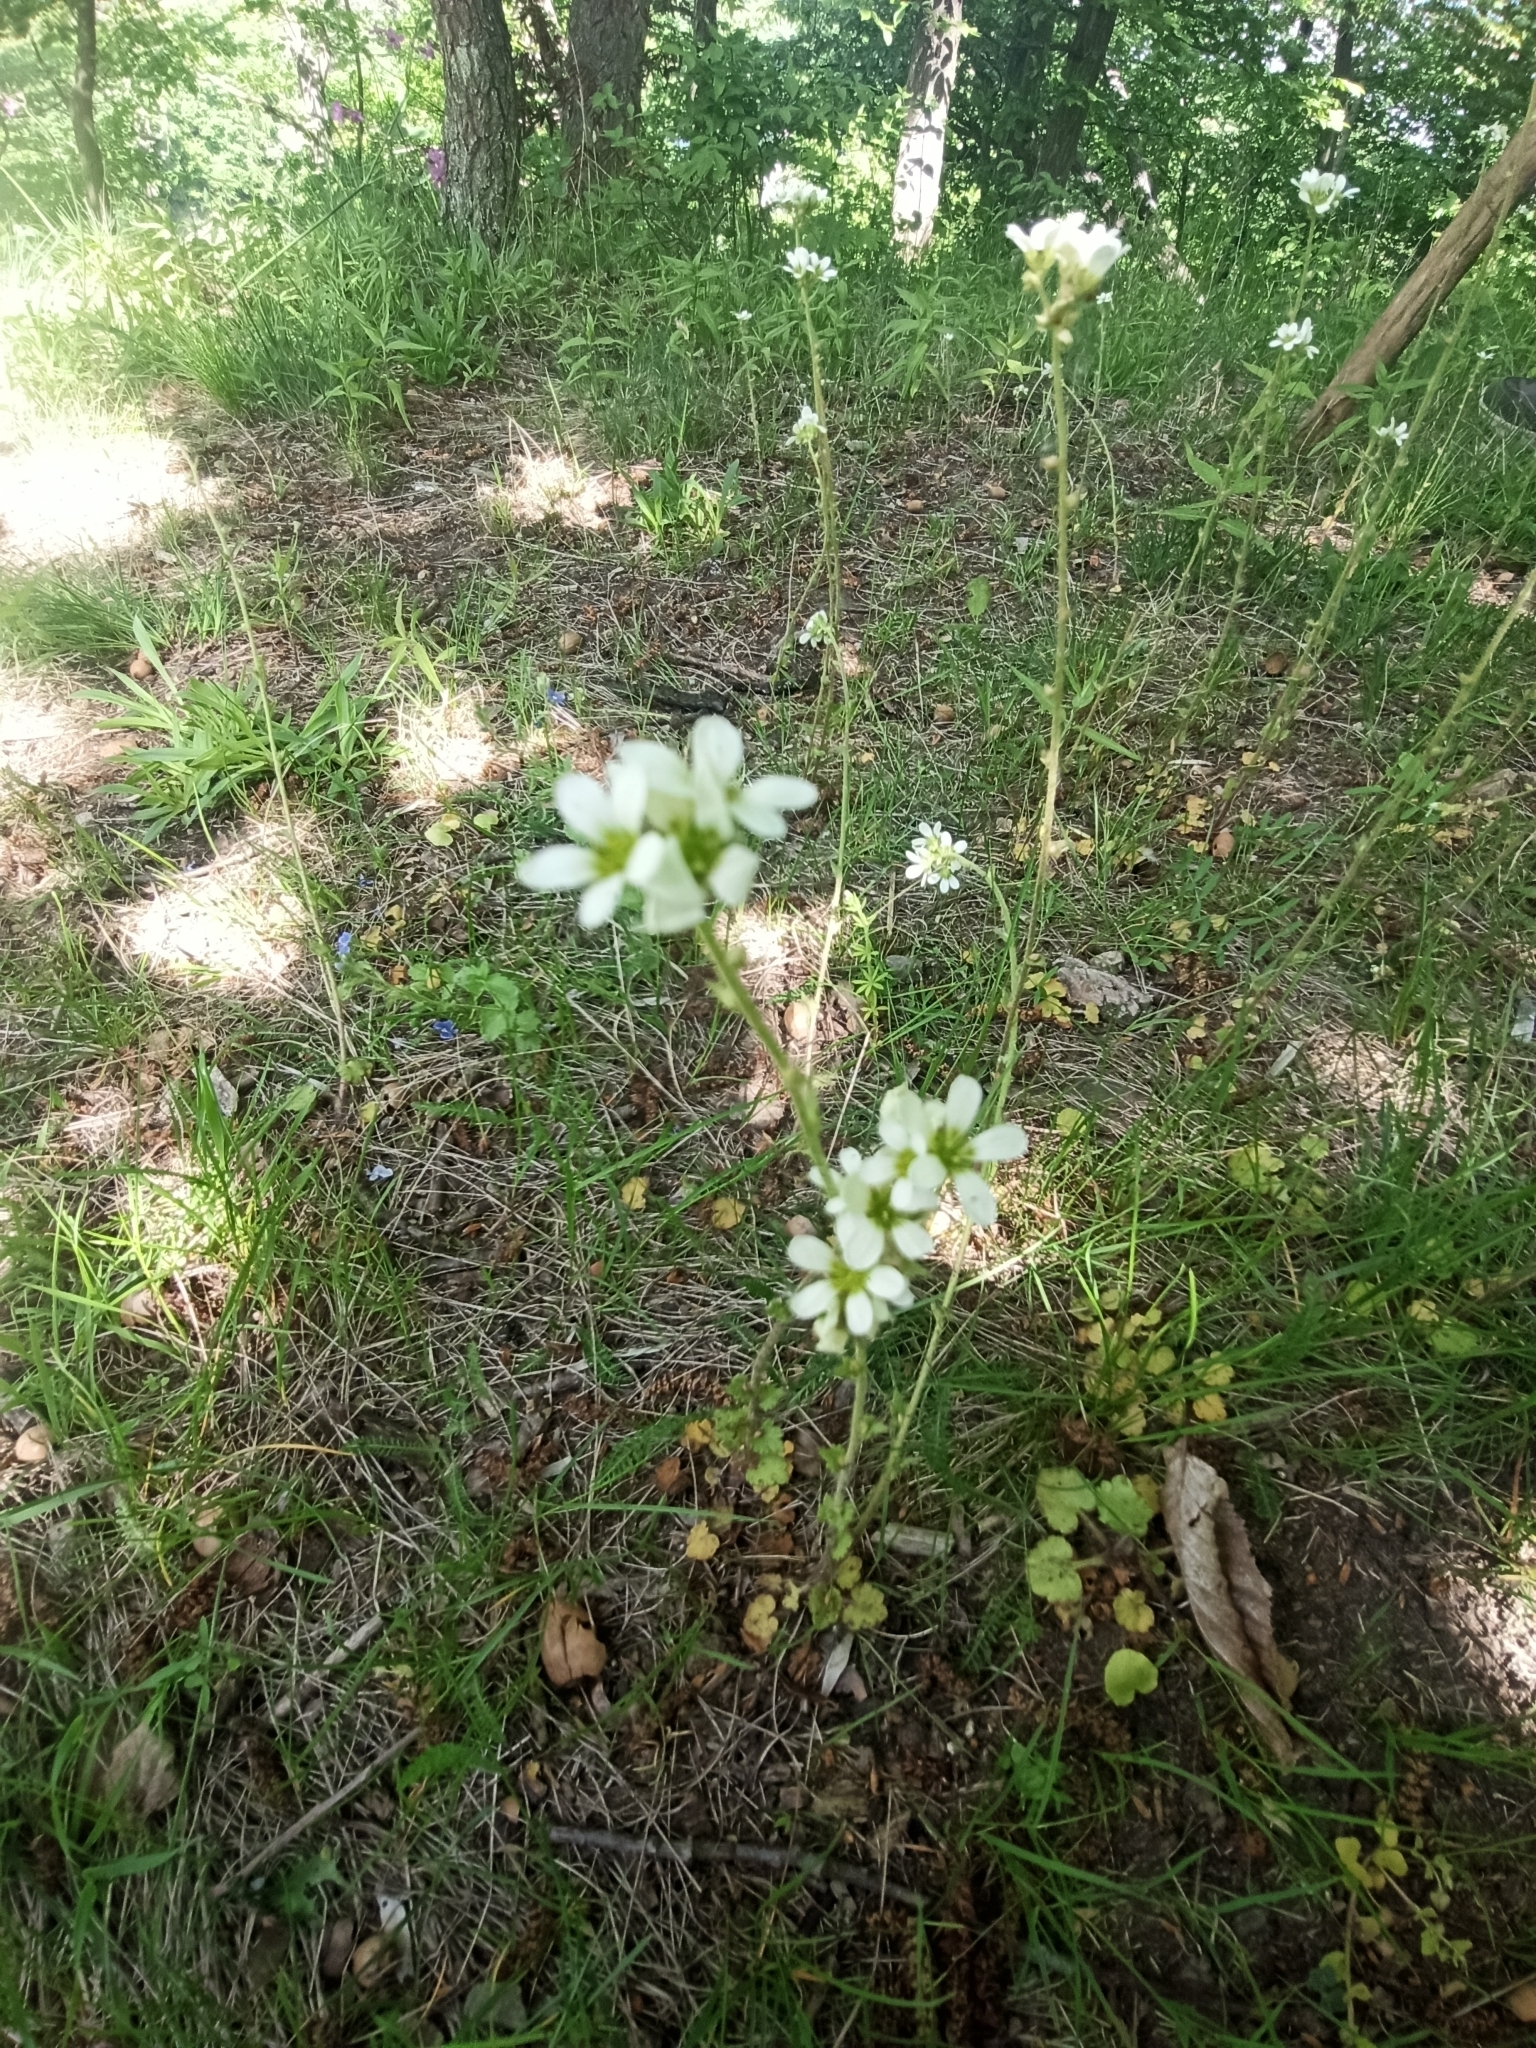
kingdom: Plantae
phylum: Tracheophyta
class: Magnoliopsida
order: Saxifragales
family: Saxifragaceae
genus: Saxifraga
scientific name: Saxifraga bulbifera
